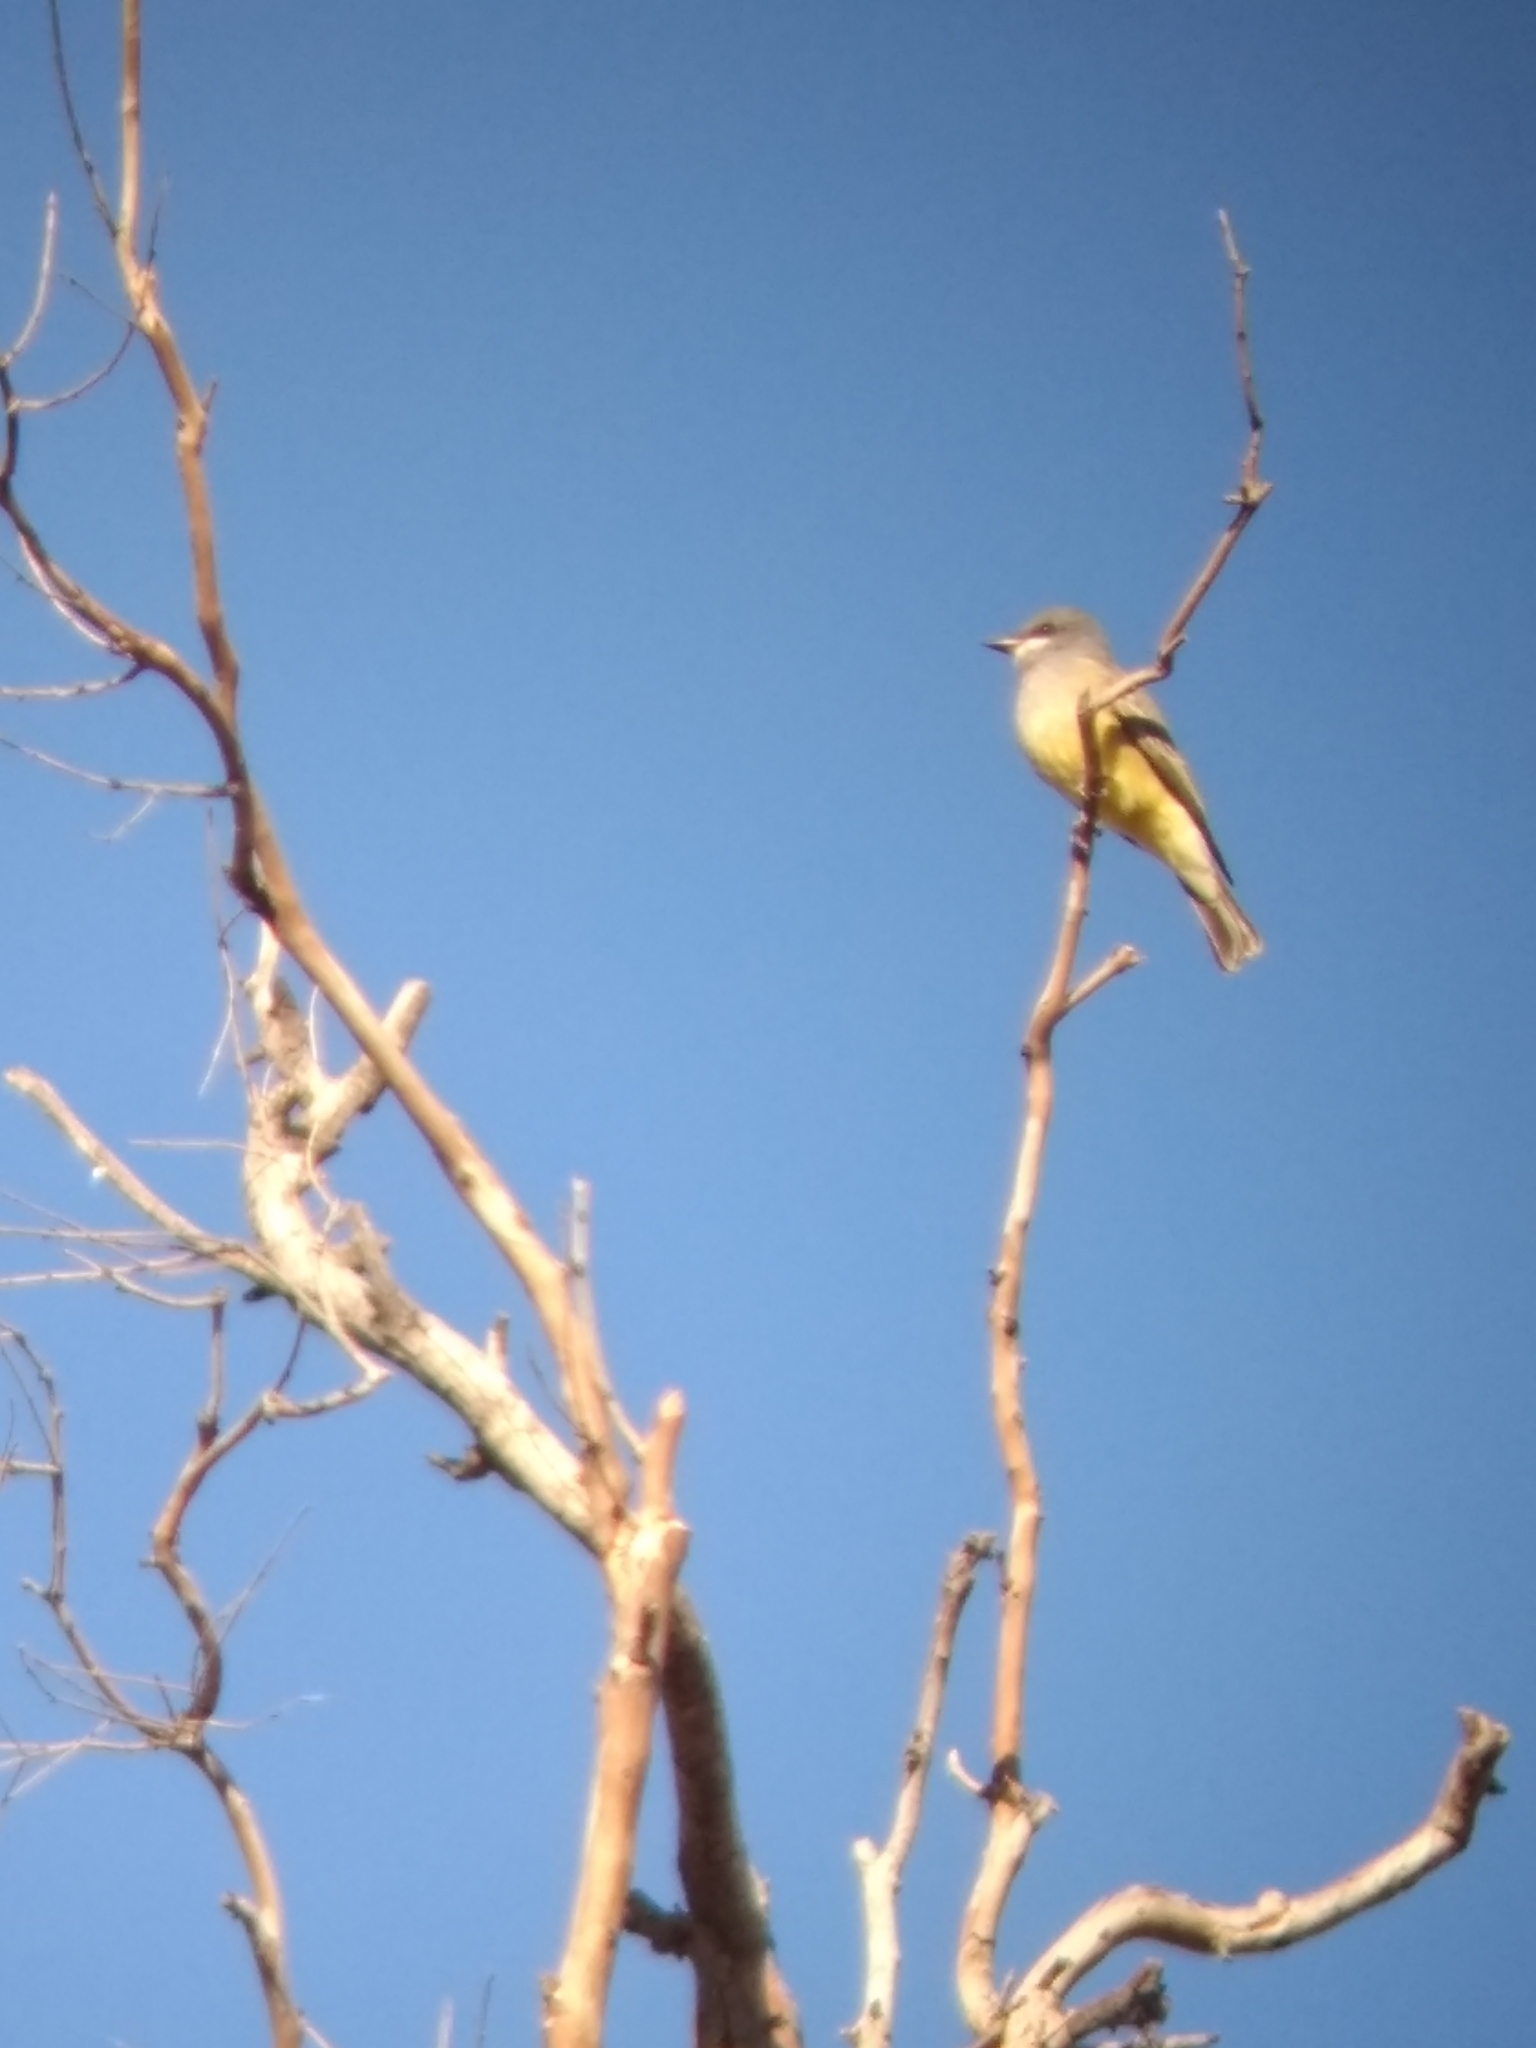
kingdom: Animalia
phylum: Chordata
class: Aves
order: Passeriformes
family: Tyrannidae
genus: Tyrannus
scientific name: Tyrannus vociferans
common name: Cassin's kingbird
